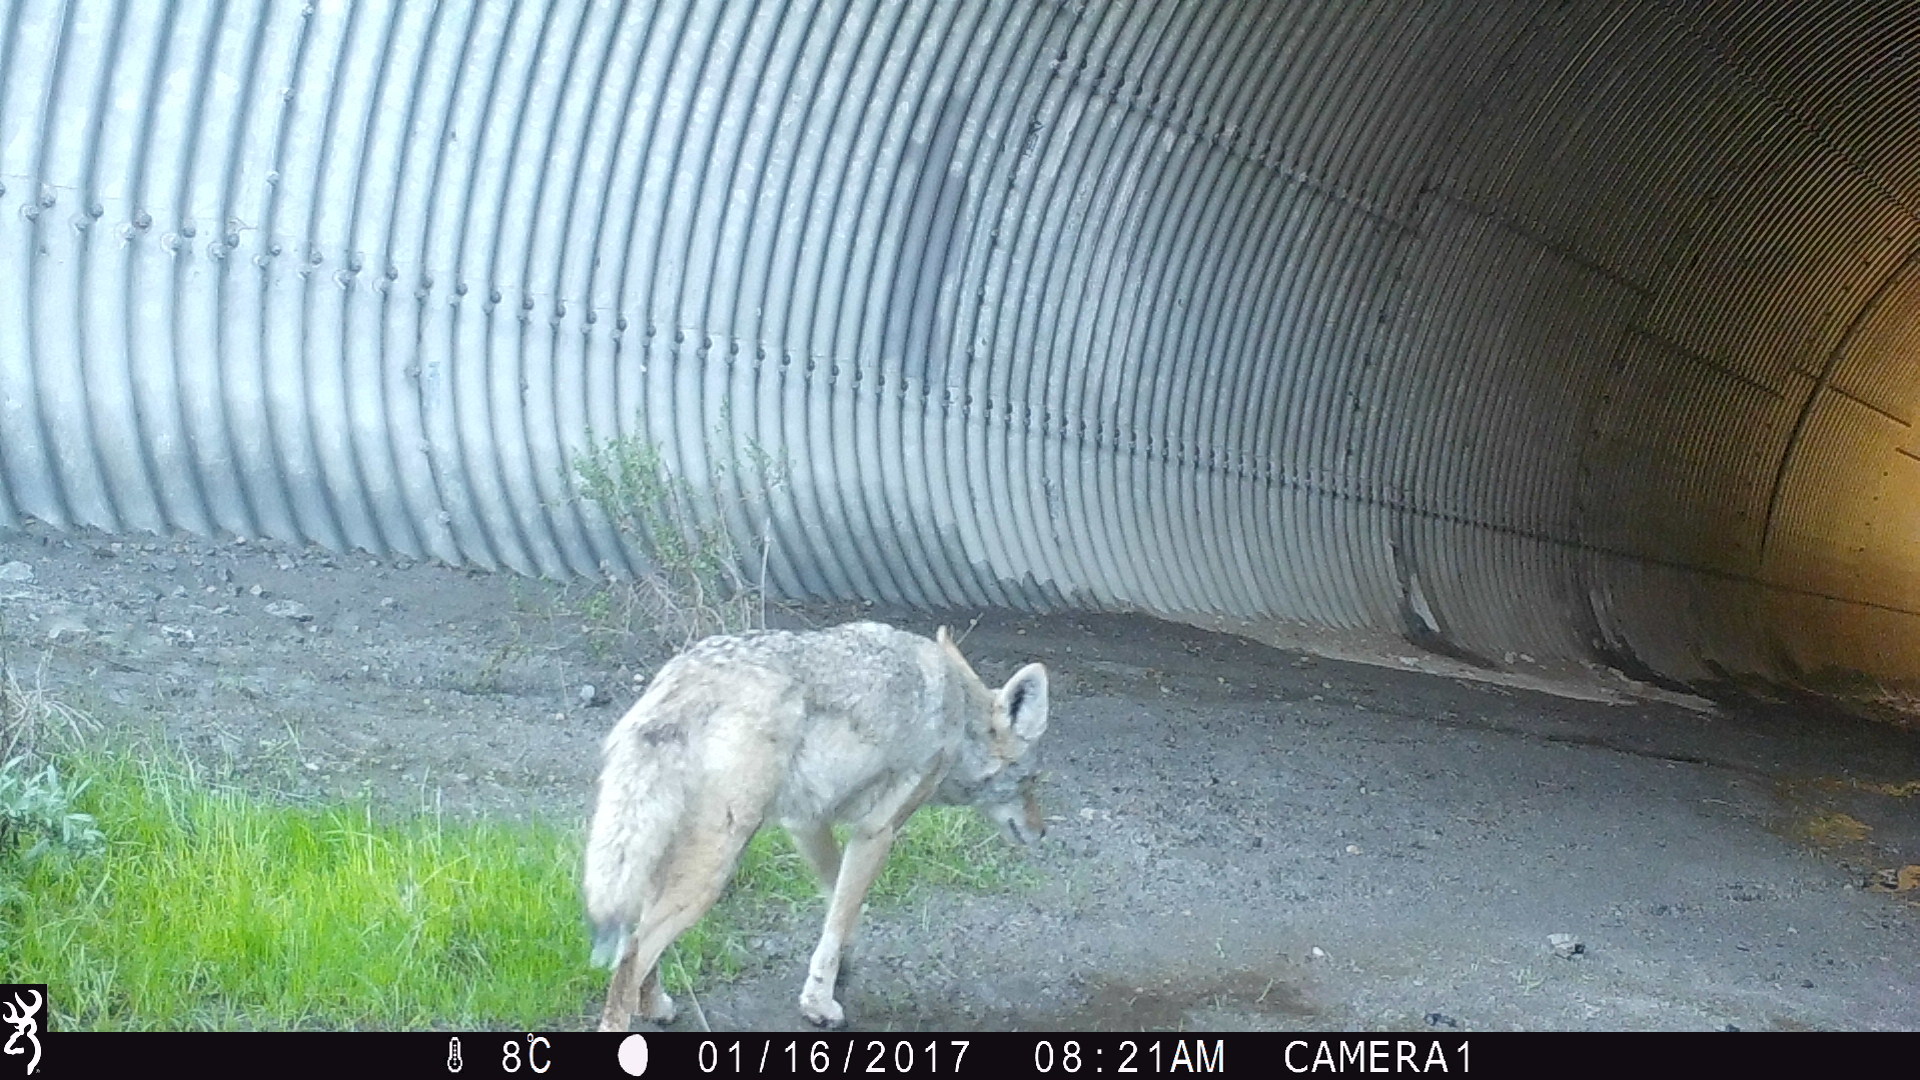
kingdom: Animalia
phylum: Chordata
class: Mammalia
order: Carnivora
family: Canidae
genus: Canis
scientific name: Canis latrans
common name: Coyote
